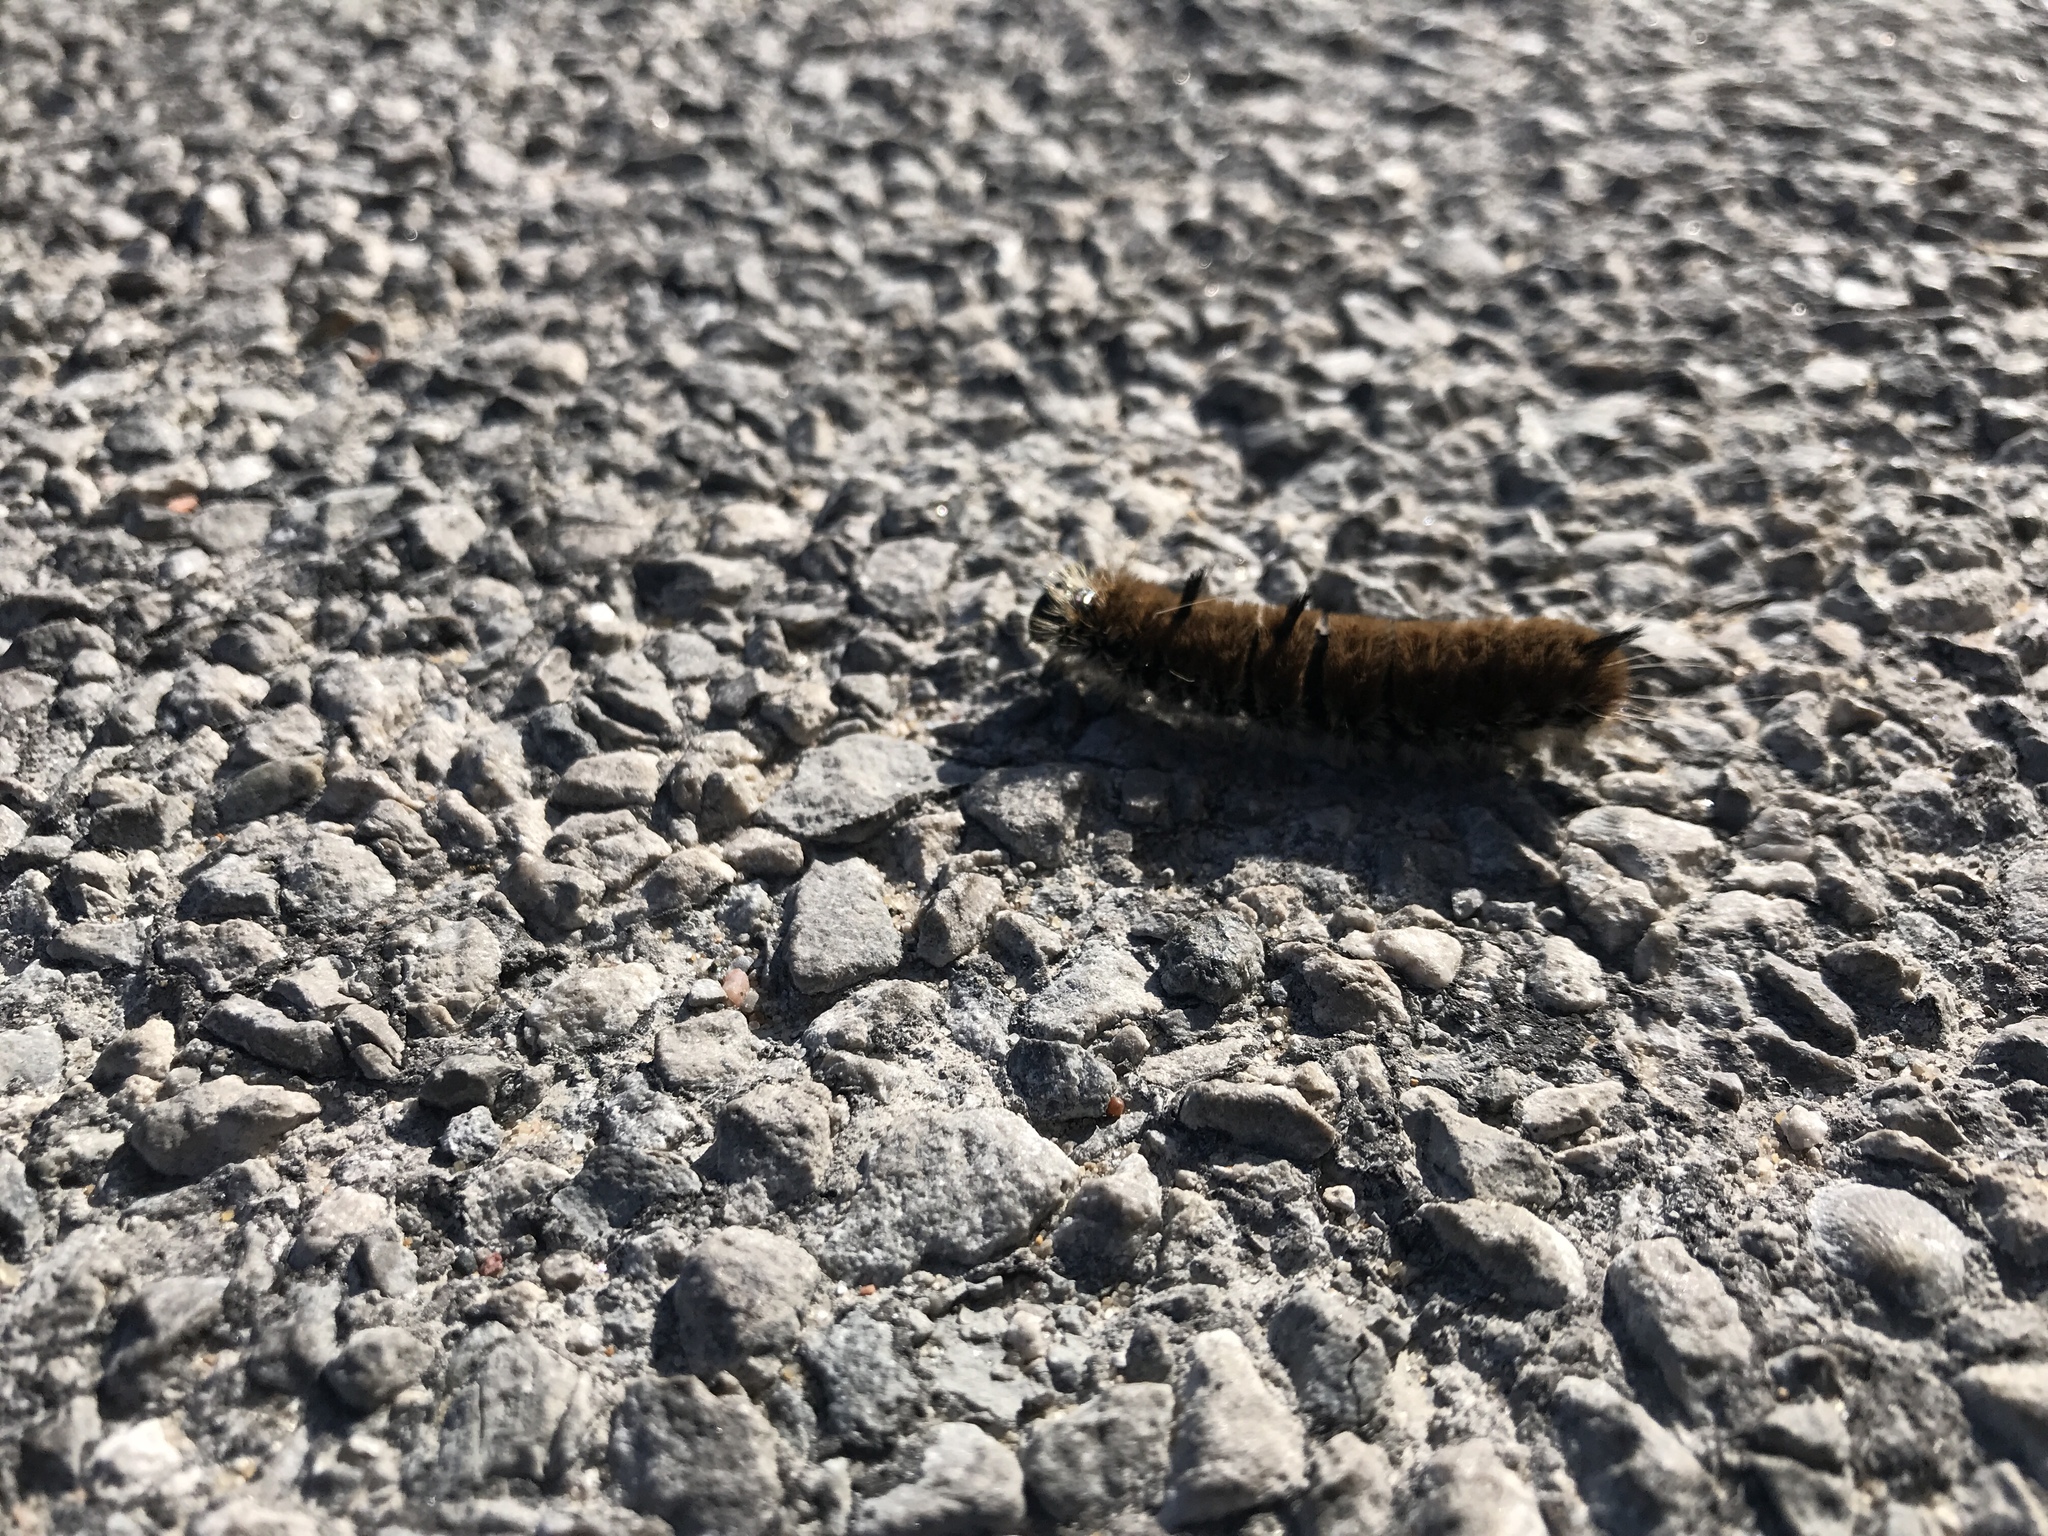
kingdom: Animalia
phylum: Arthropoda
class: Insecta
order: Lepidoptera
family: Noctuidae
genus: Acronicta
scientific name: Acronicta insita
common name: Large gray dagger
